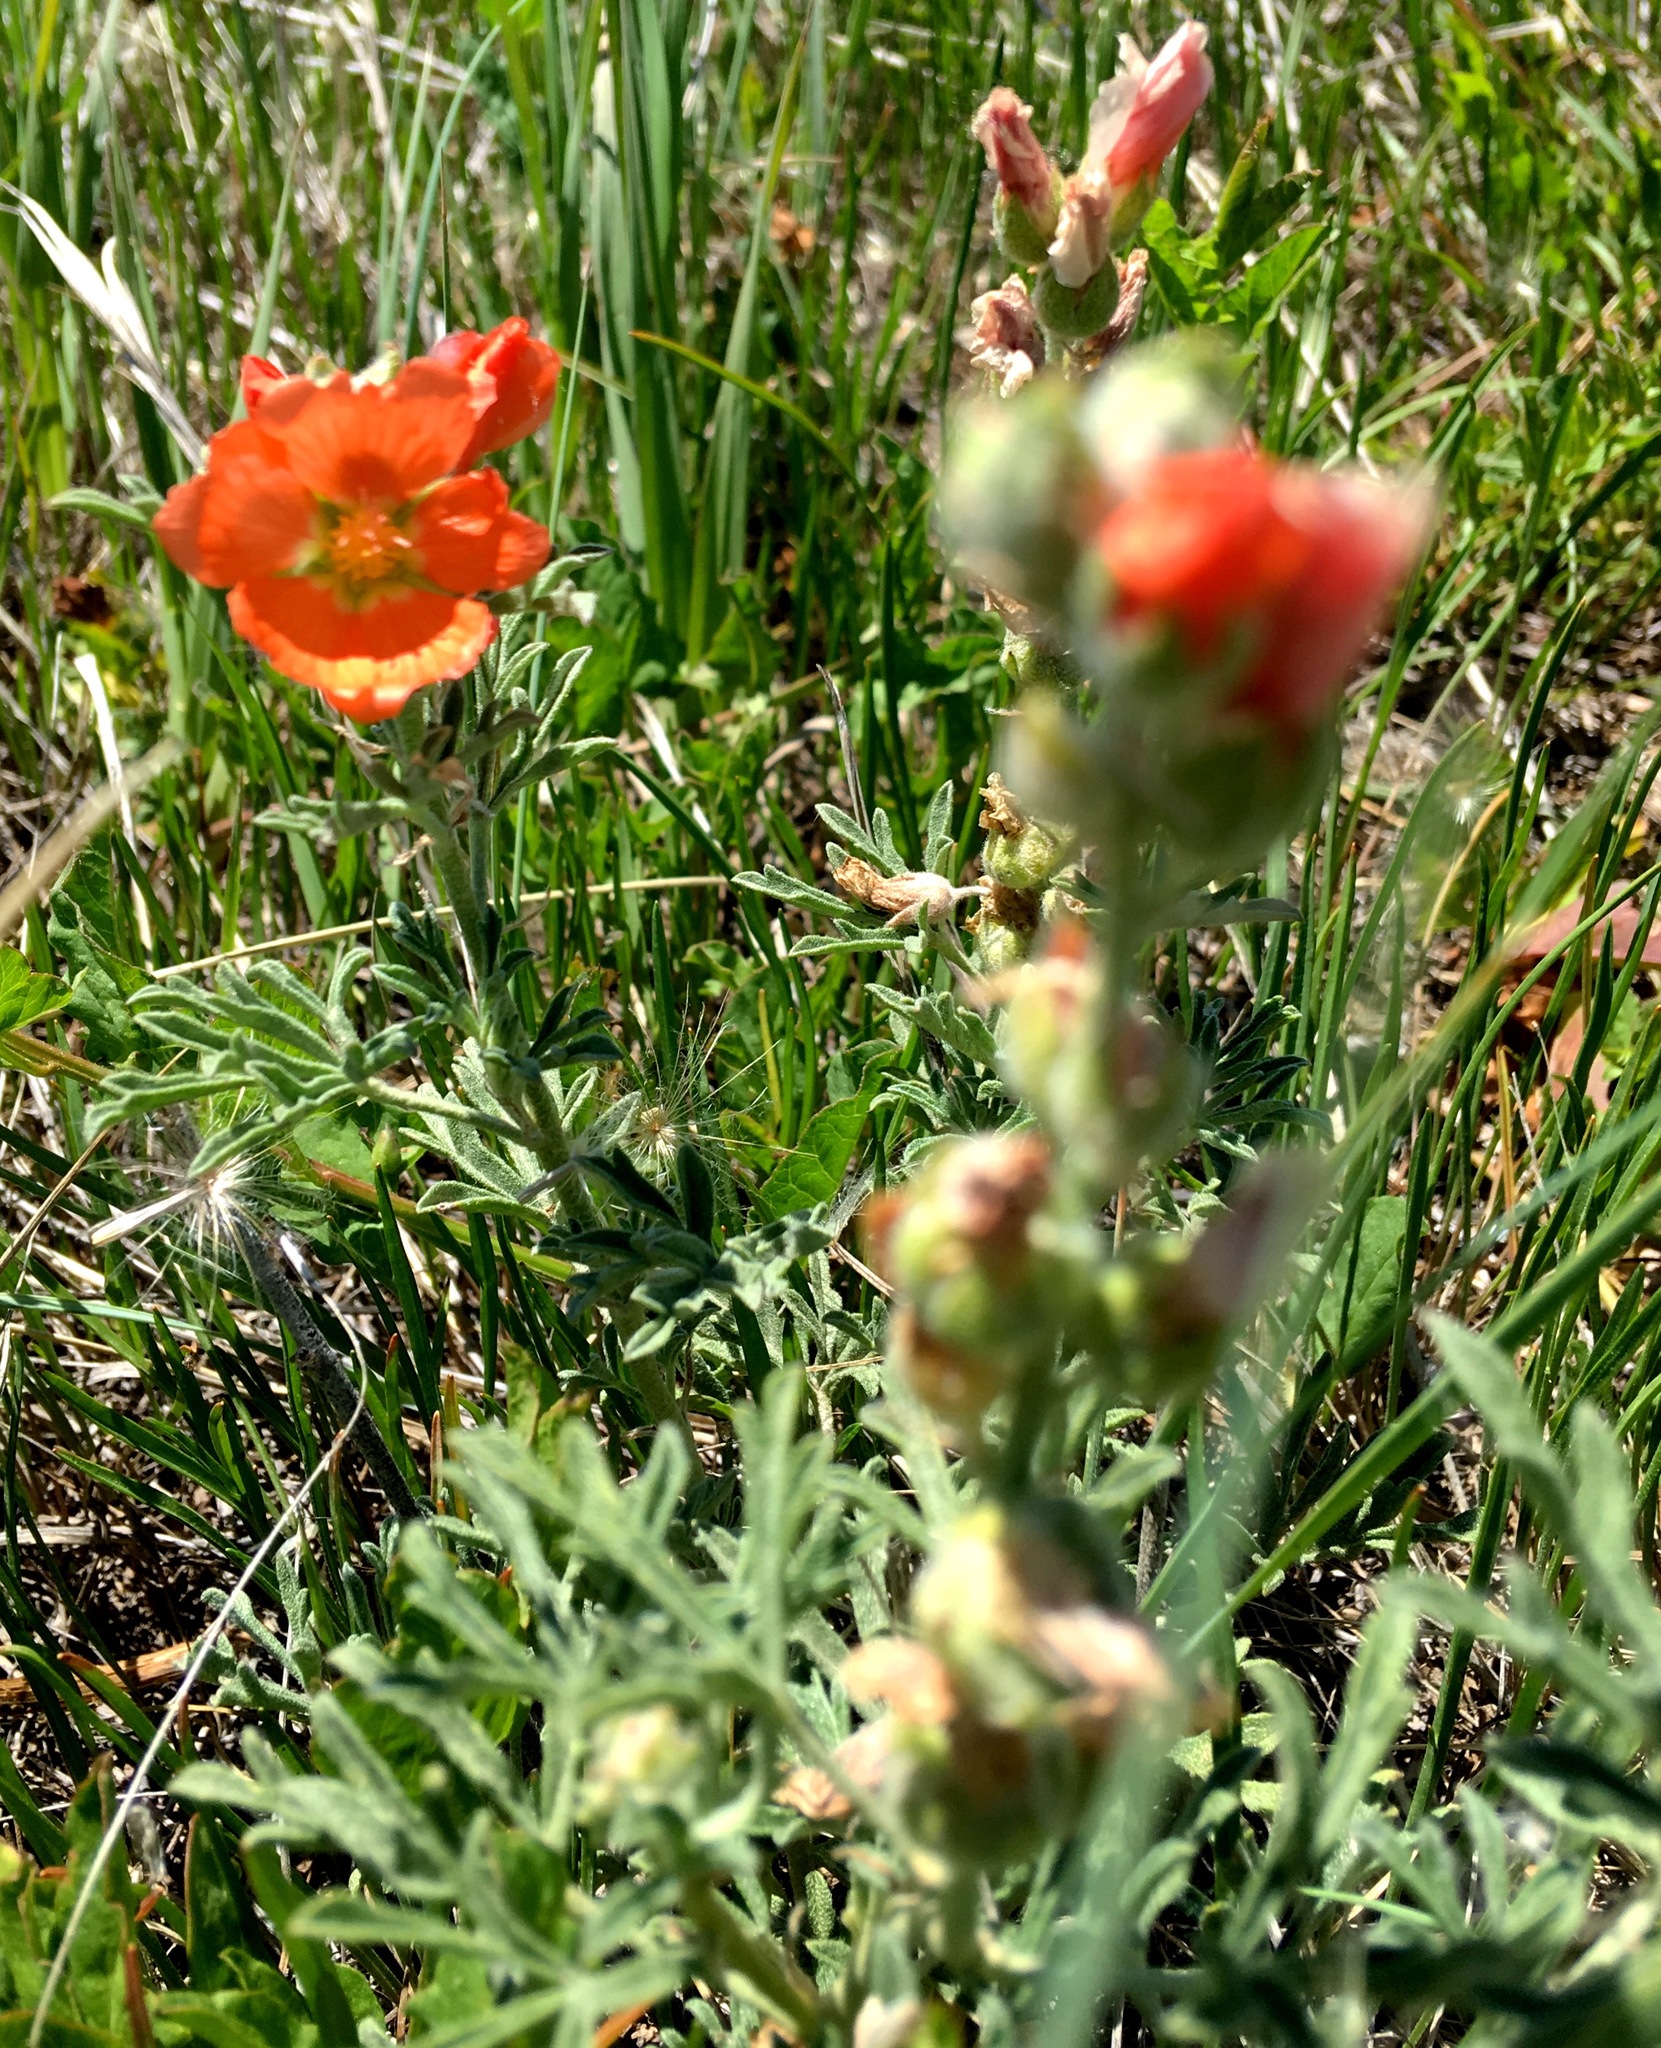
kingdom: Plantae
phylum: Tracheophyta
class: Magnoliopsida
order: Malvales
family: Malvaceae
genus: Sphaeralcea
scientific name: Sphaeralcea coccinea
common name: Moss-rose
